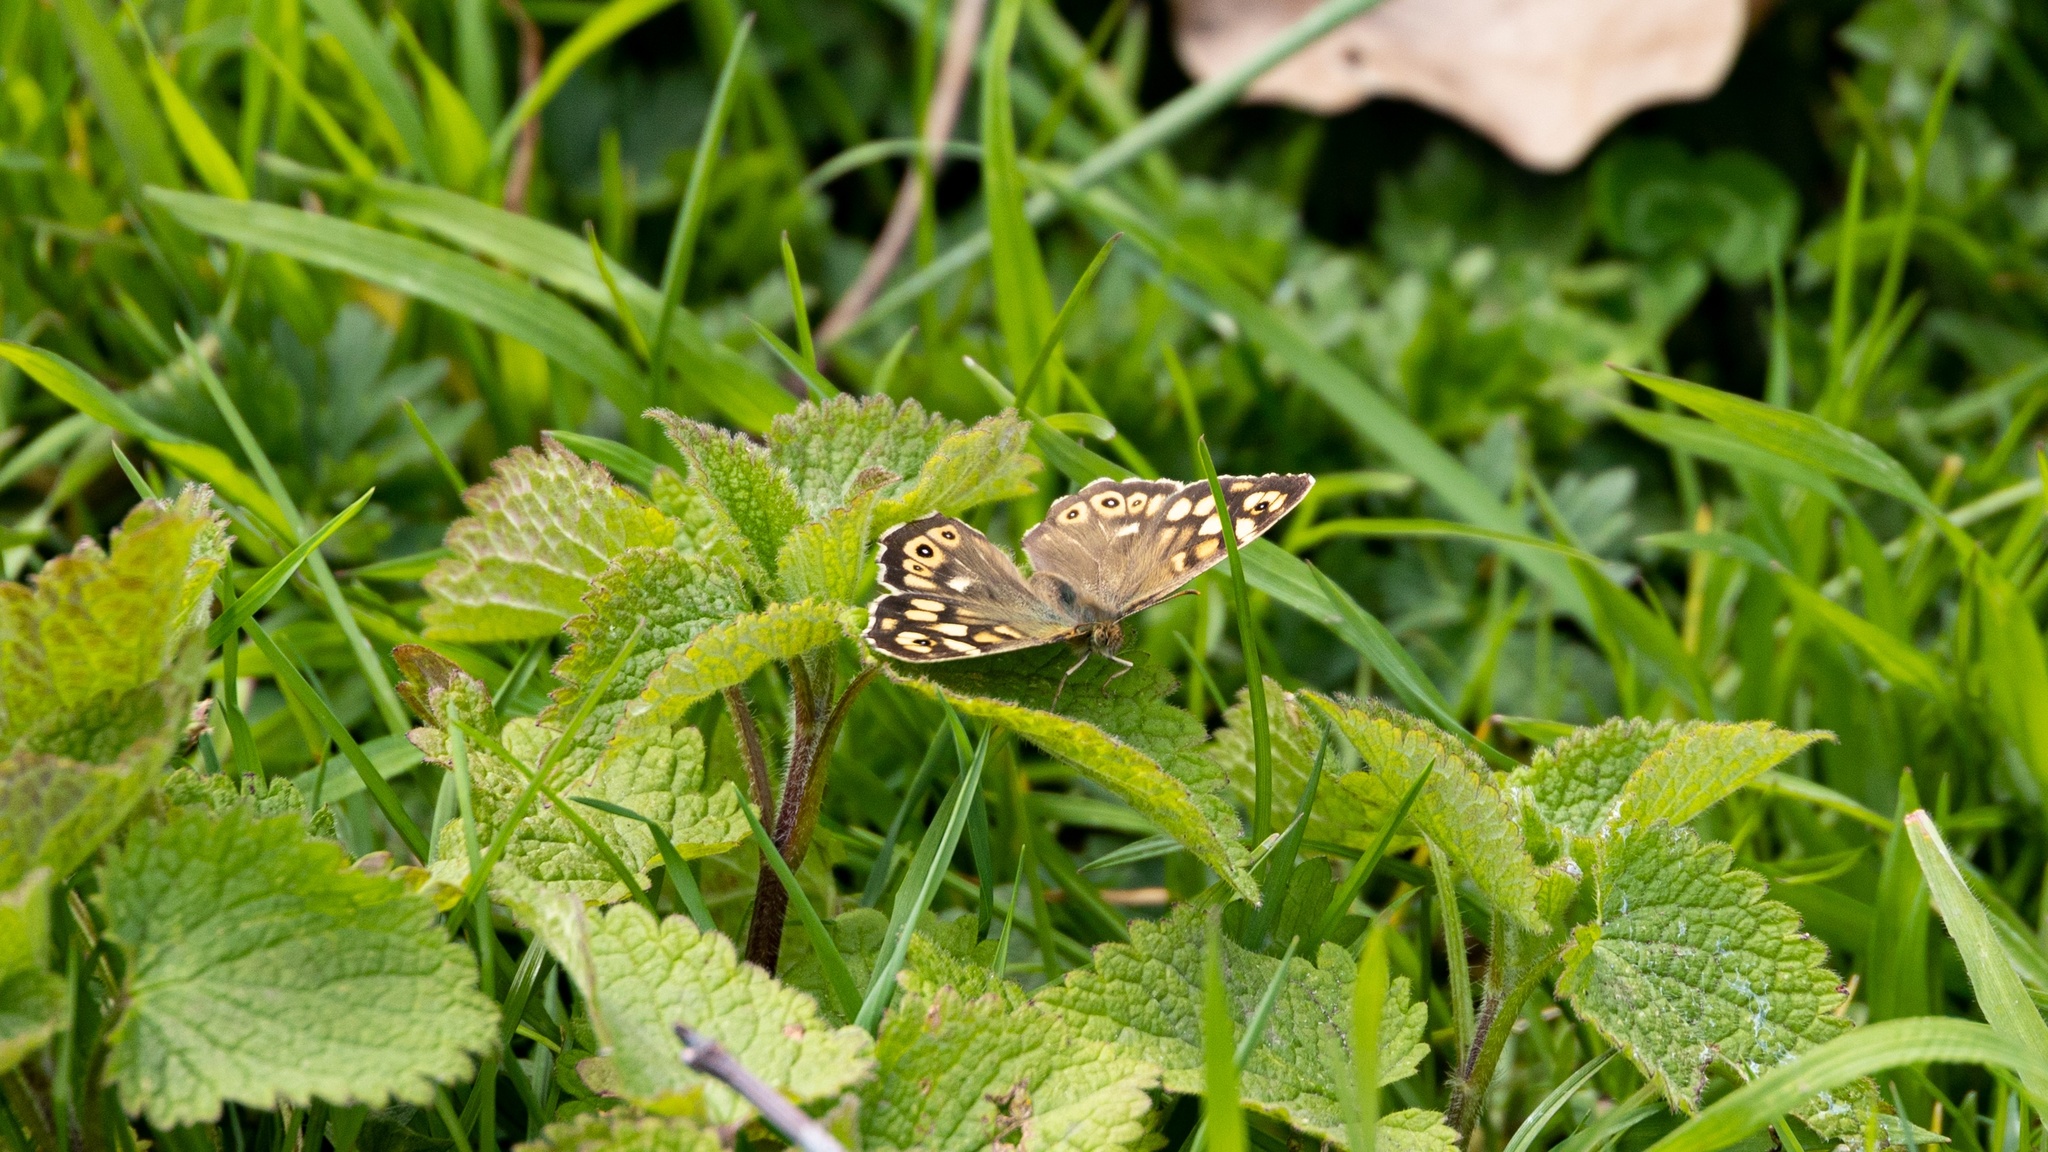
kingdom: Animalia
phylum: Arthropoda
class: Insecta
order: Lepidoptera
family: Nymphalidae
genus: Pararge
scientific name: Pararge aegeria
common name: Speckled wood
